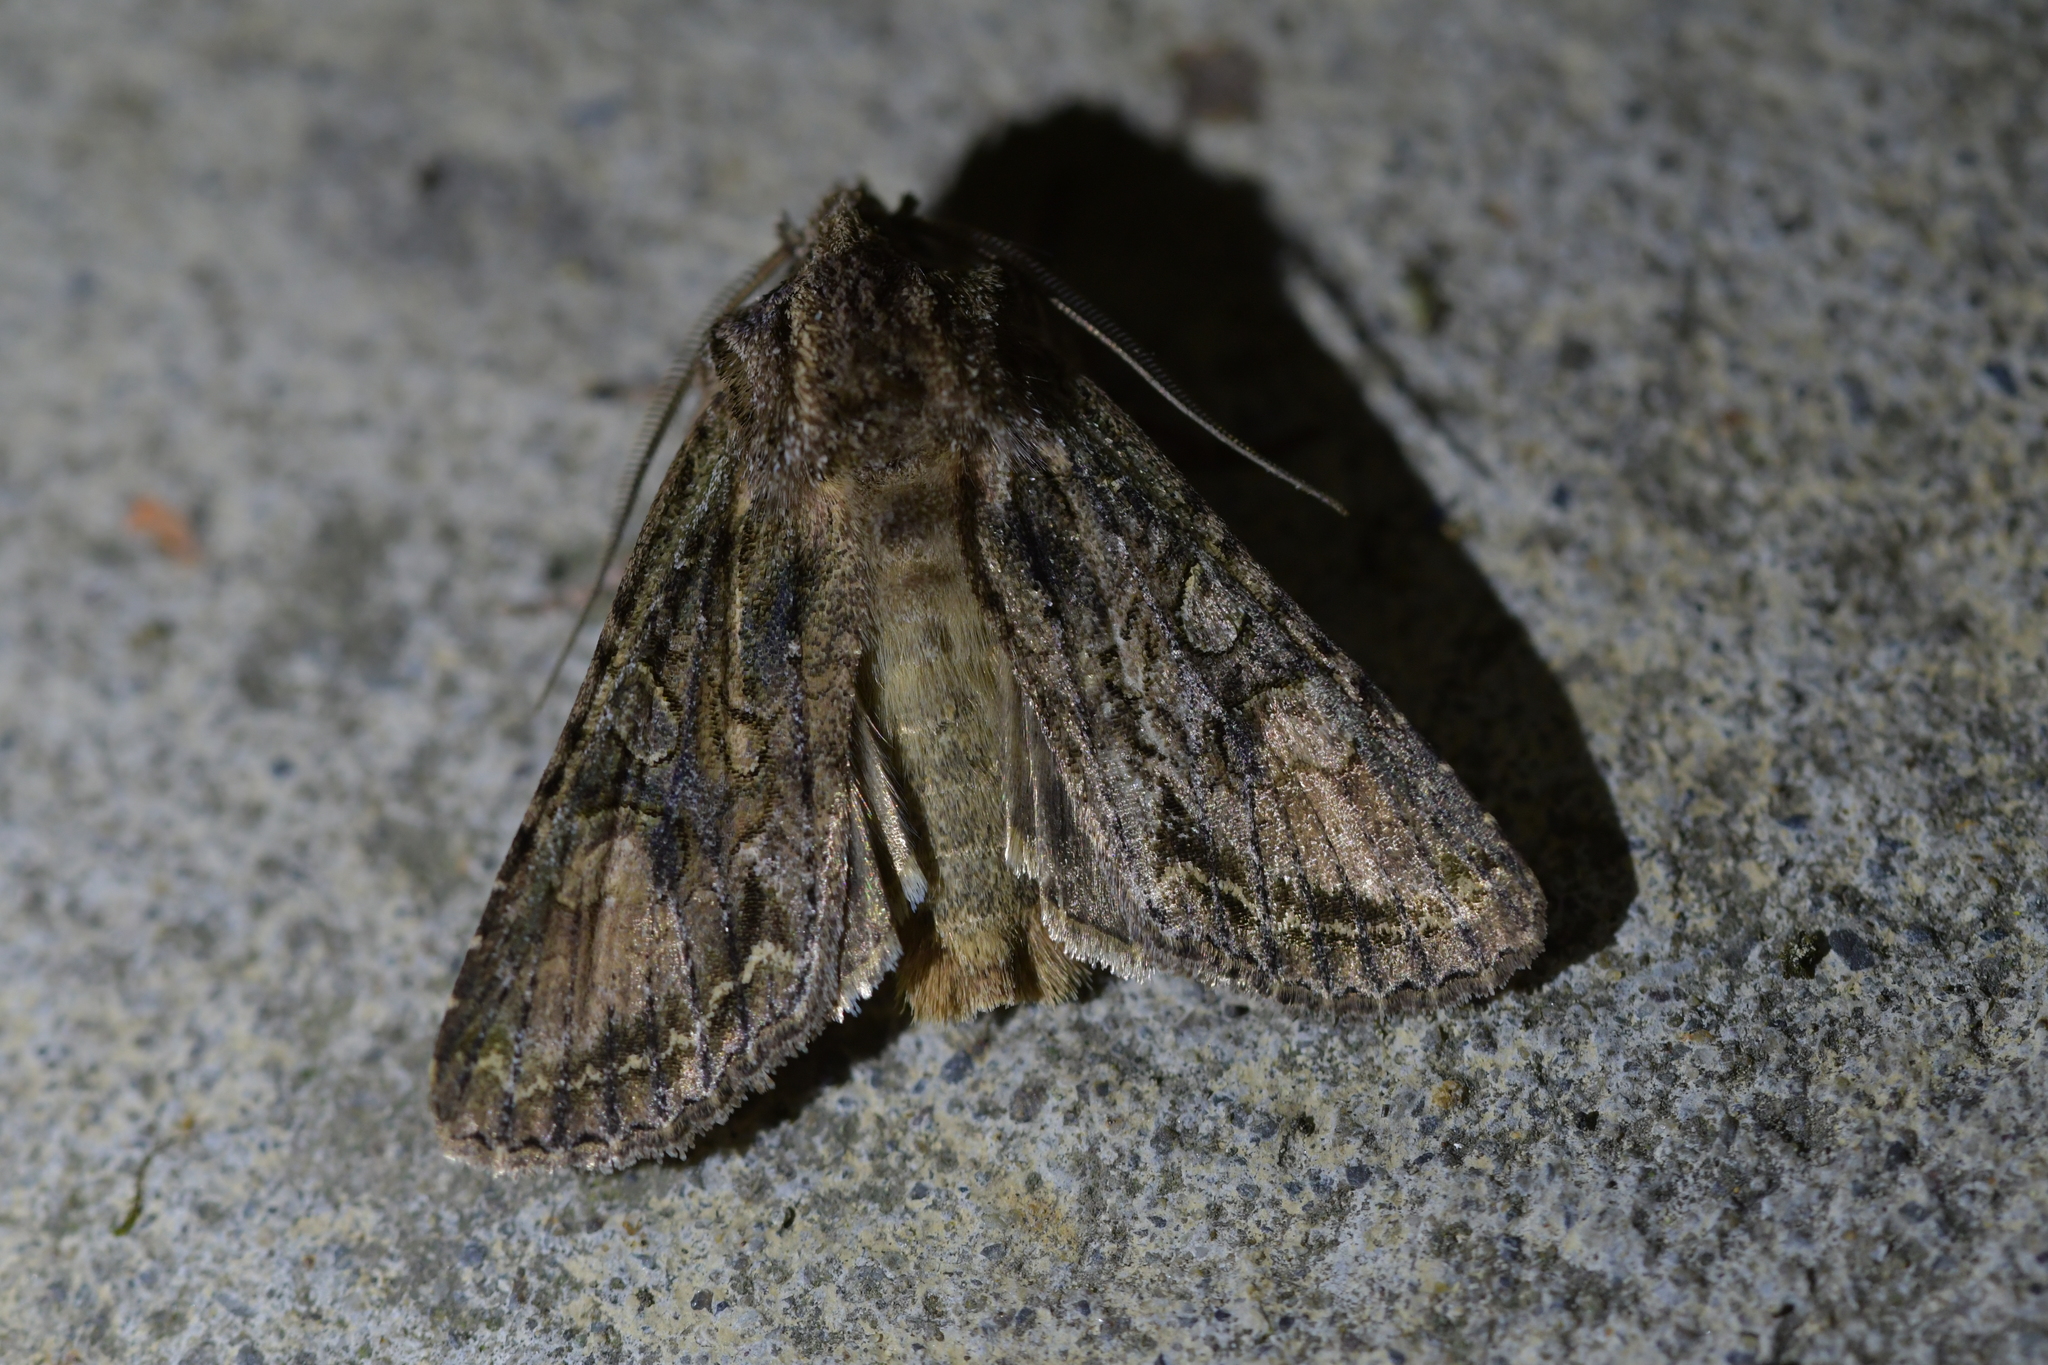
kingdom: Animalia
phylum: Arthropoda
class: Insecta
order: Lepidoptera
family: Noctuidae
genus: Ichneutica
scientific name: Ichneutica mutans
